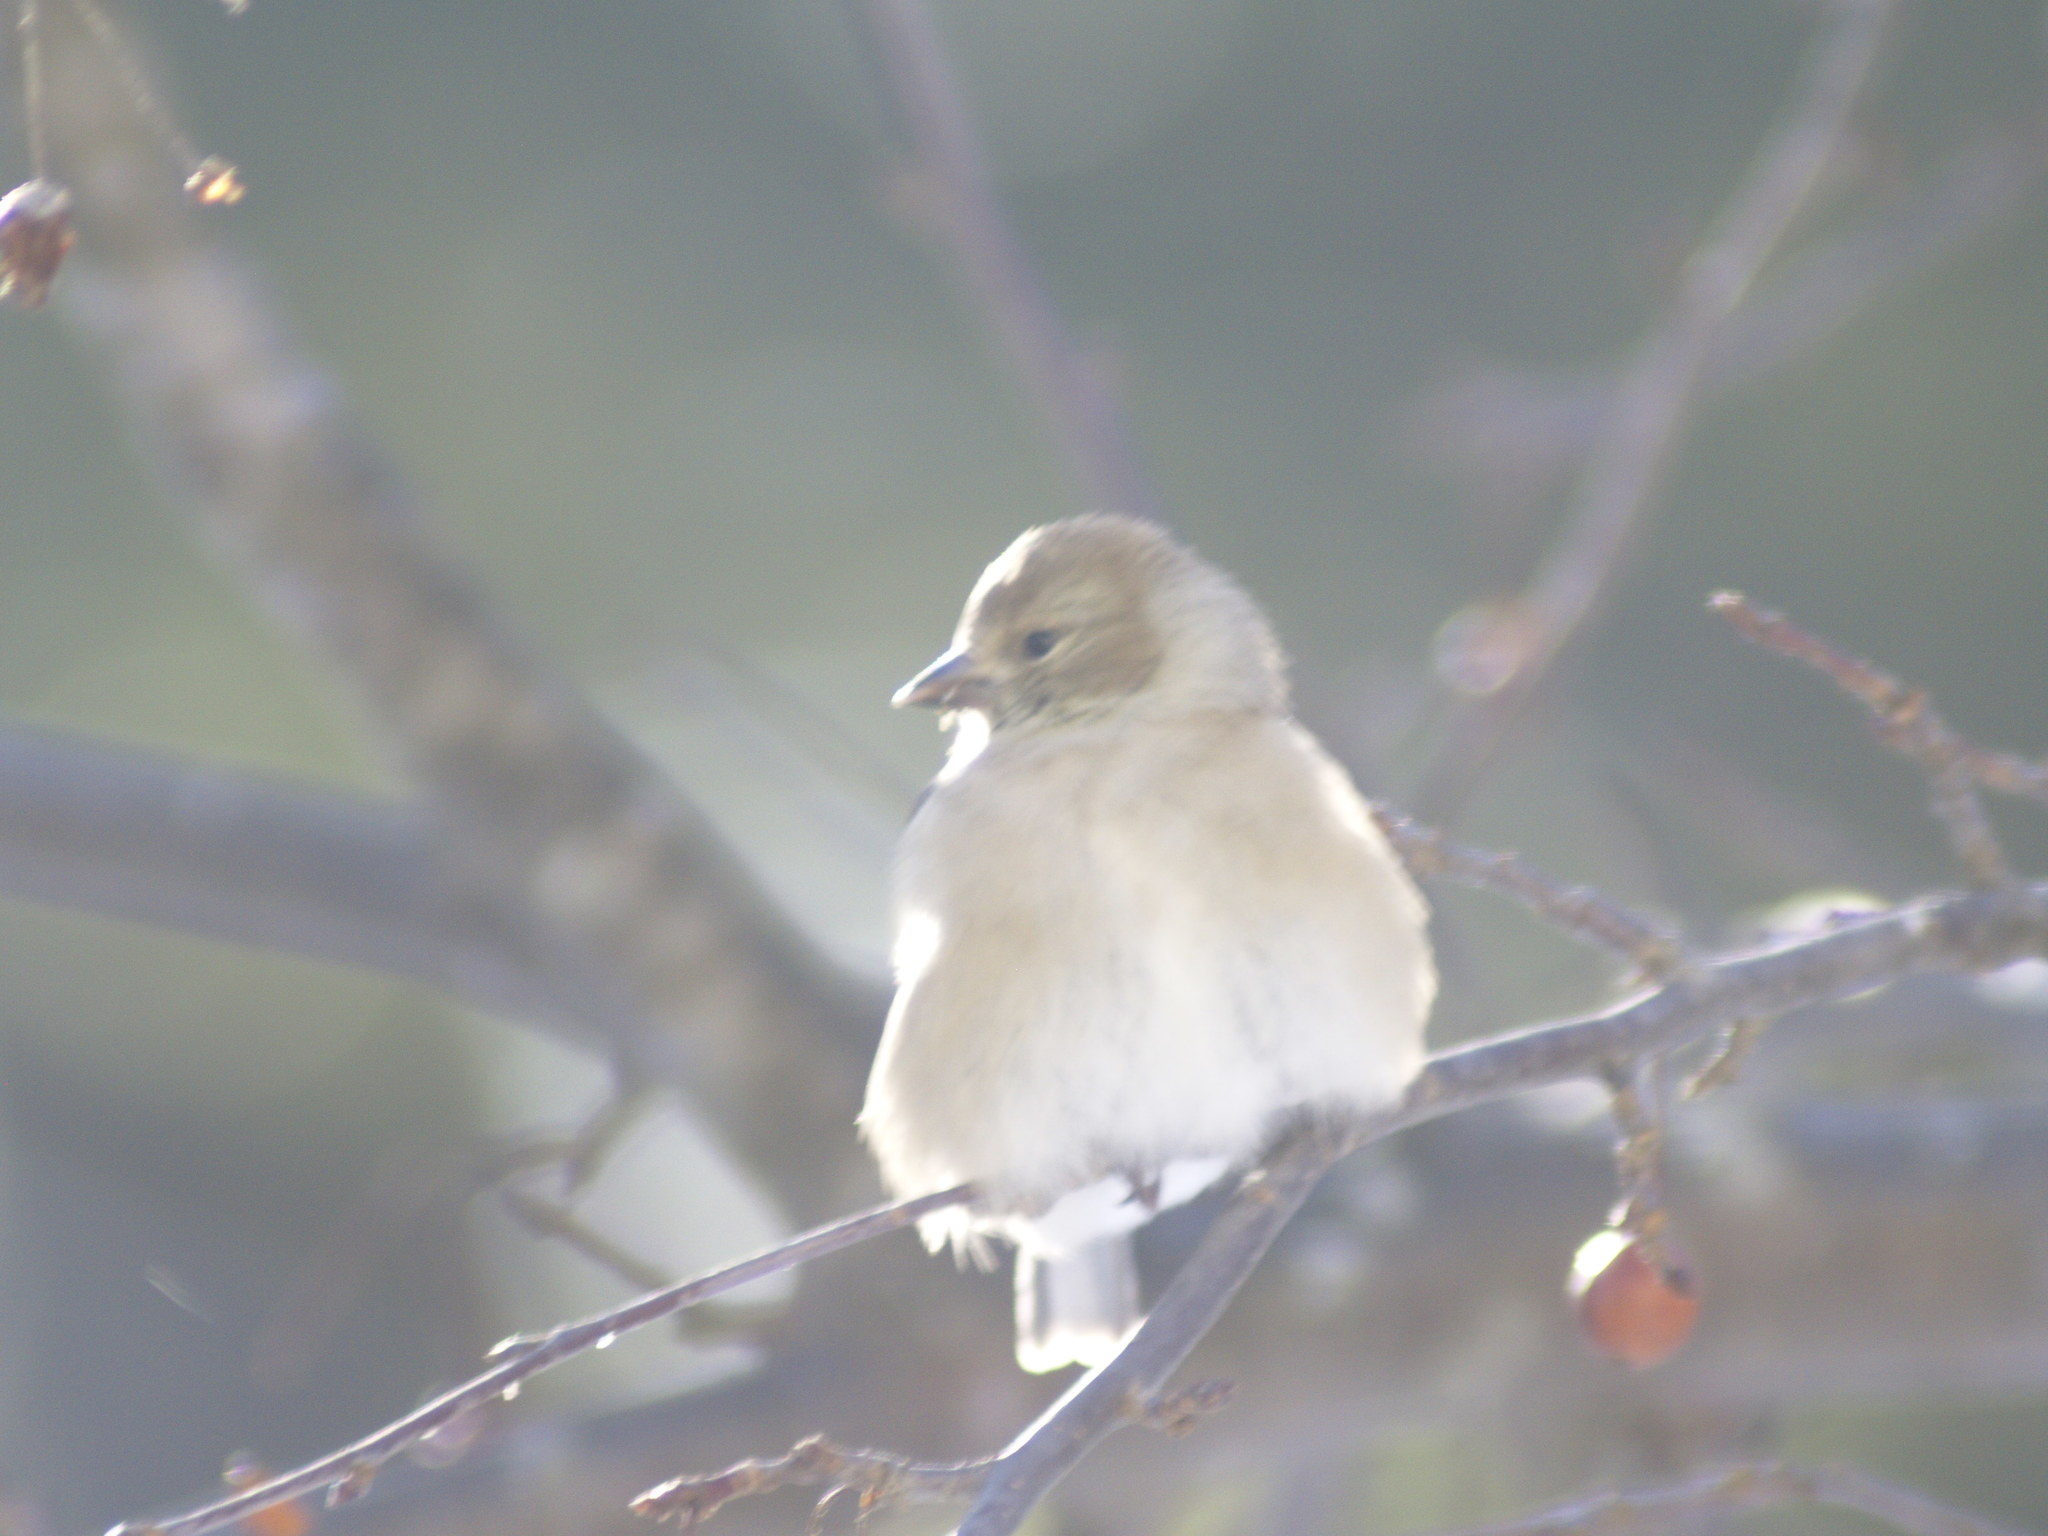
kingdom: Animalia
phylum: Chordata
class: Aves
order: Passeriformes
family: Fringillidae
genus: Spinus
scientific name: Spinus tristis
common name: American goldfinch
